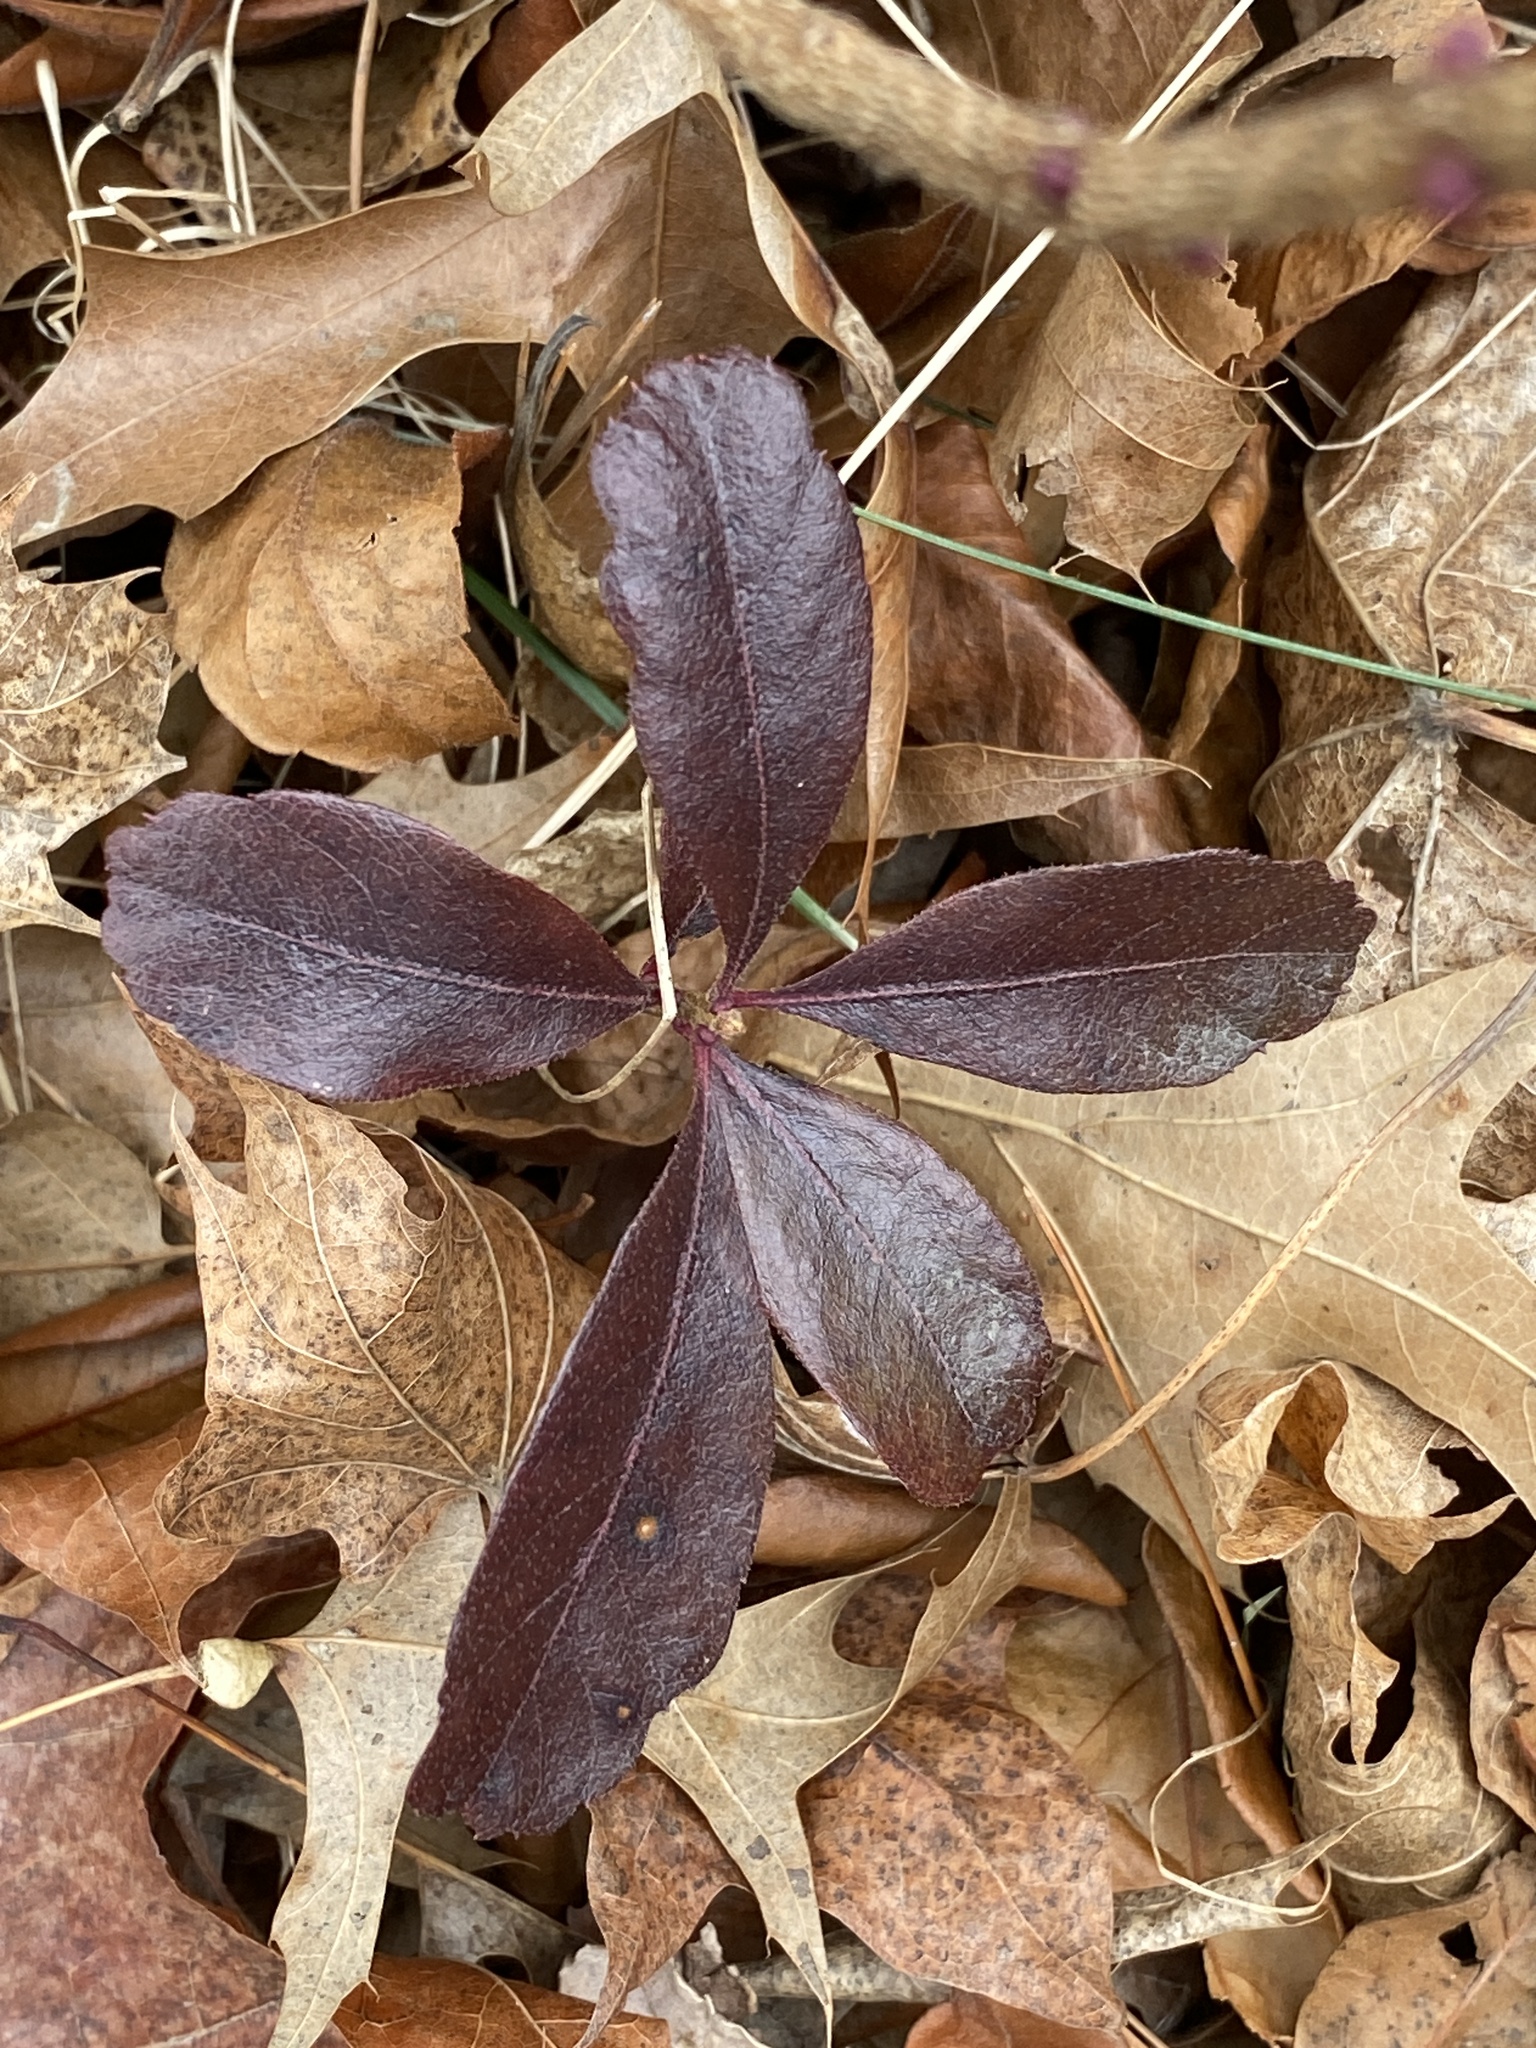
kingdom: Plantae
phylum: Tracheophyta
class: Magnoliopsida
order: Fagales
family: Myricaceae
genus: Morella
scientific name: Morella pensylvanica
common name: Northern bayberry
